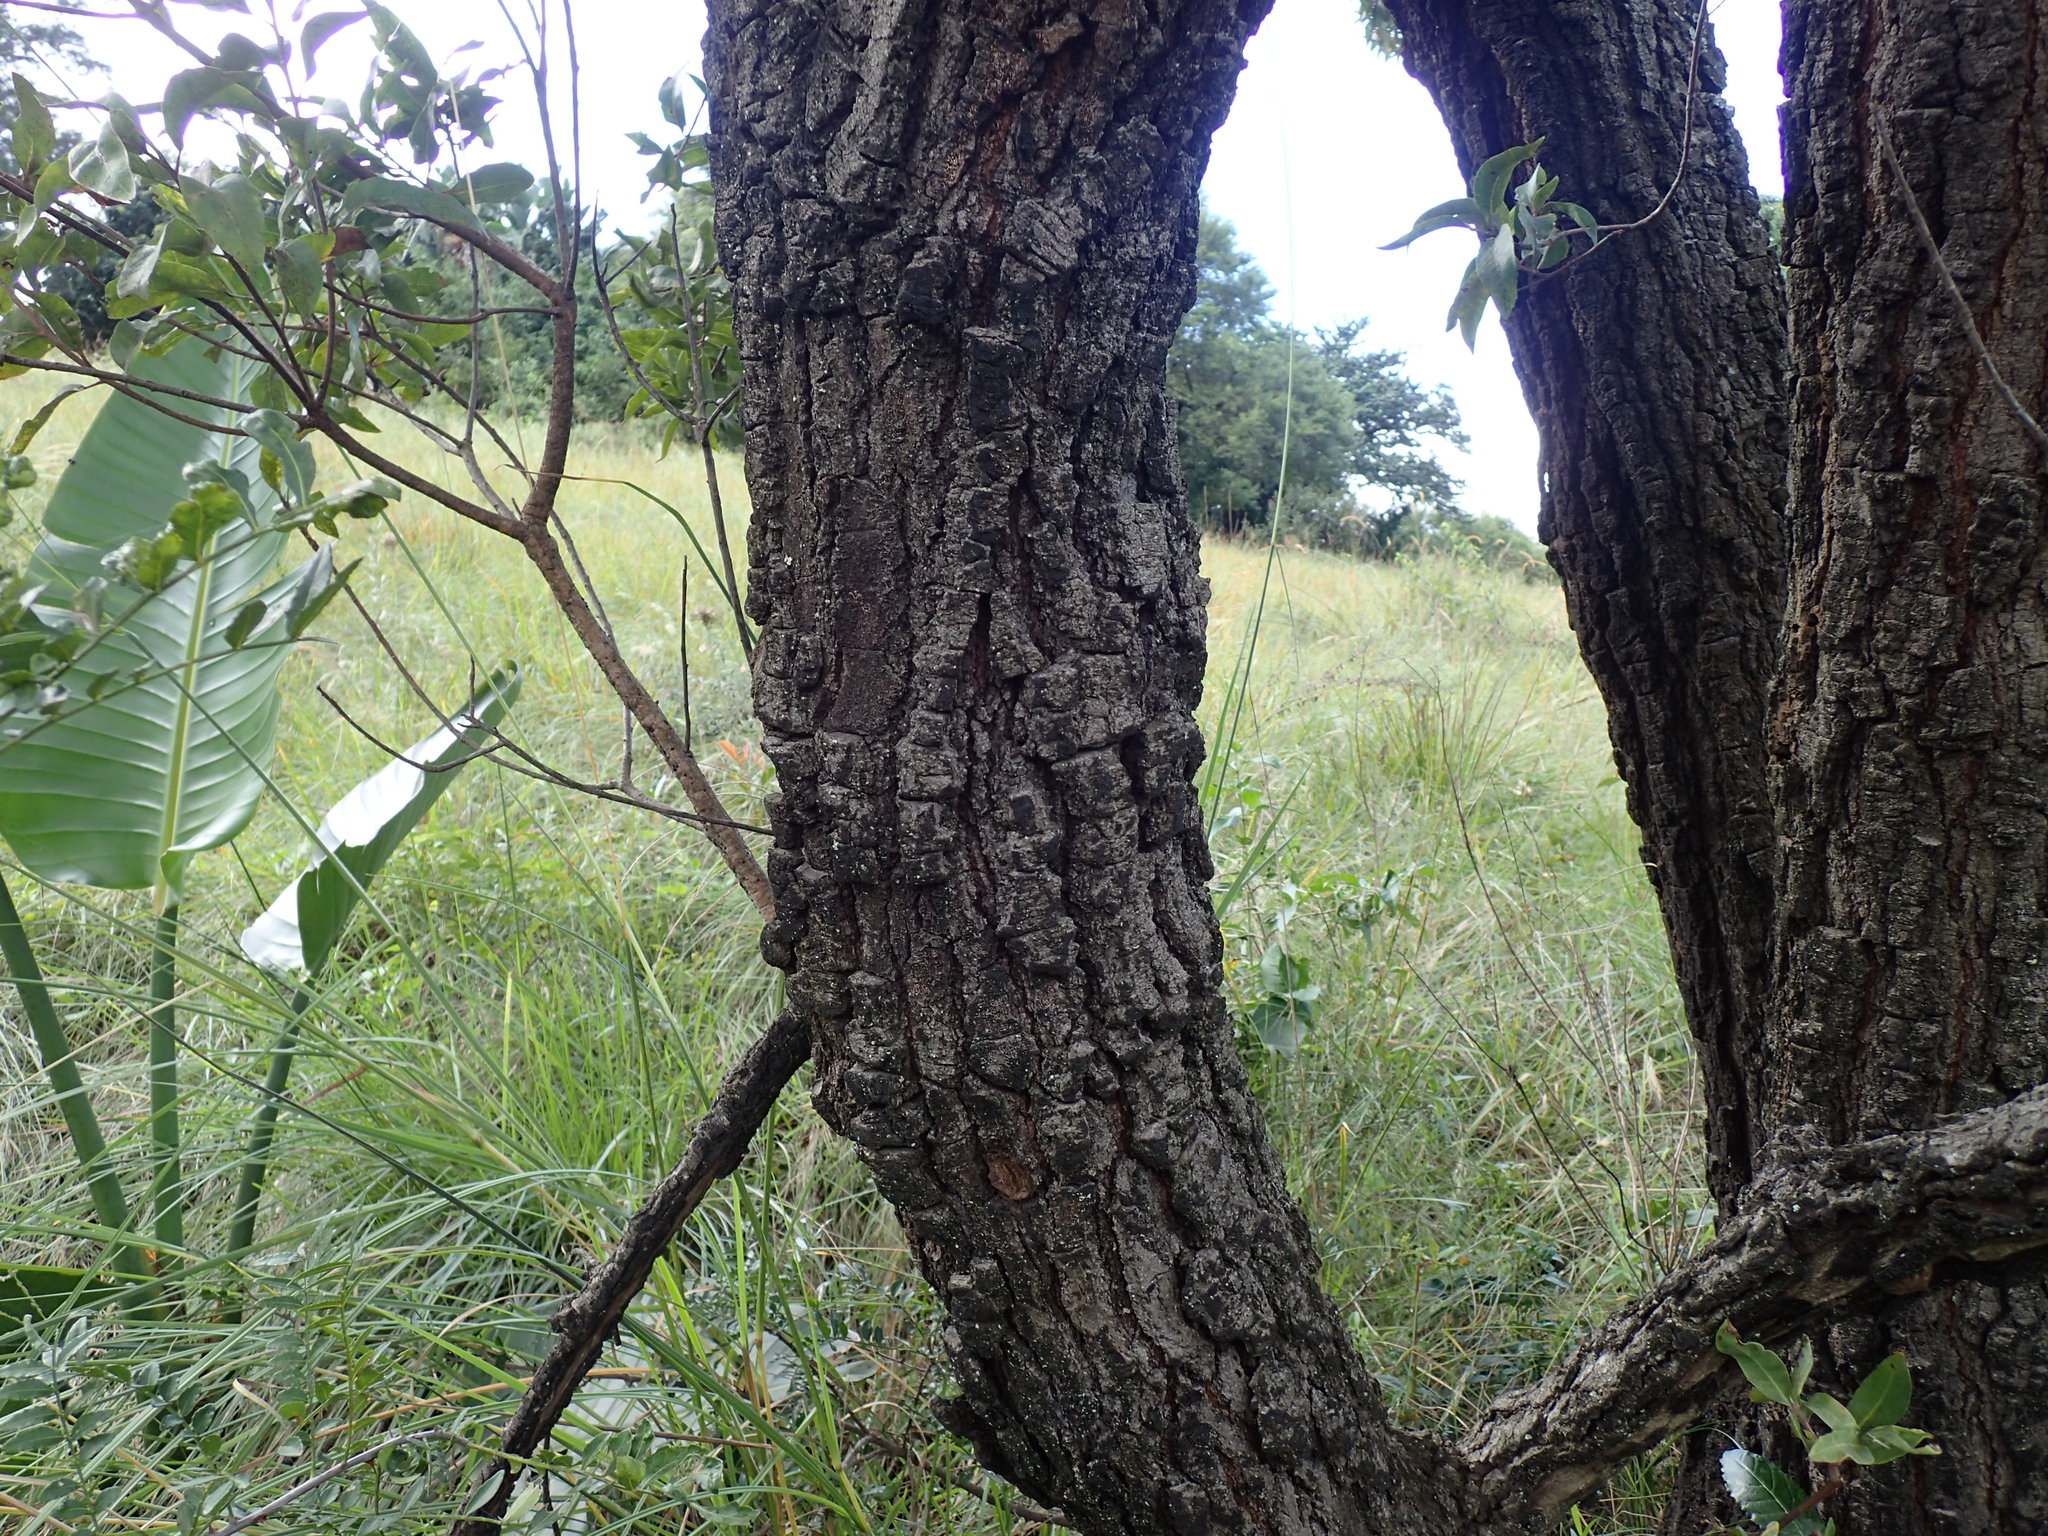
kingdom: Plantae
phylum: Tracheophyta
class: Magnoliopsida
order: Proteales
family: Proteaceae
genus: Faurea
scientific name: Faurea saligna
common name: African bean
